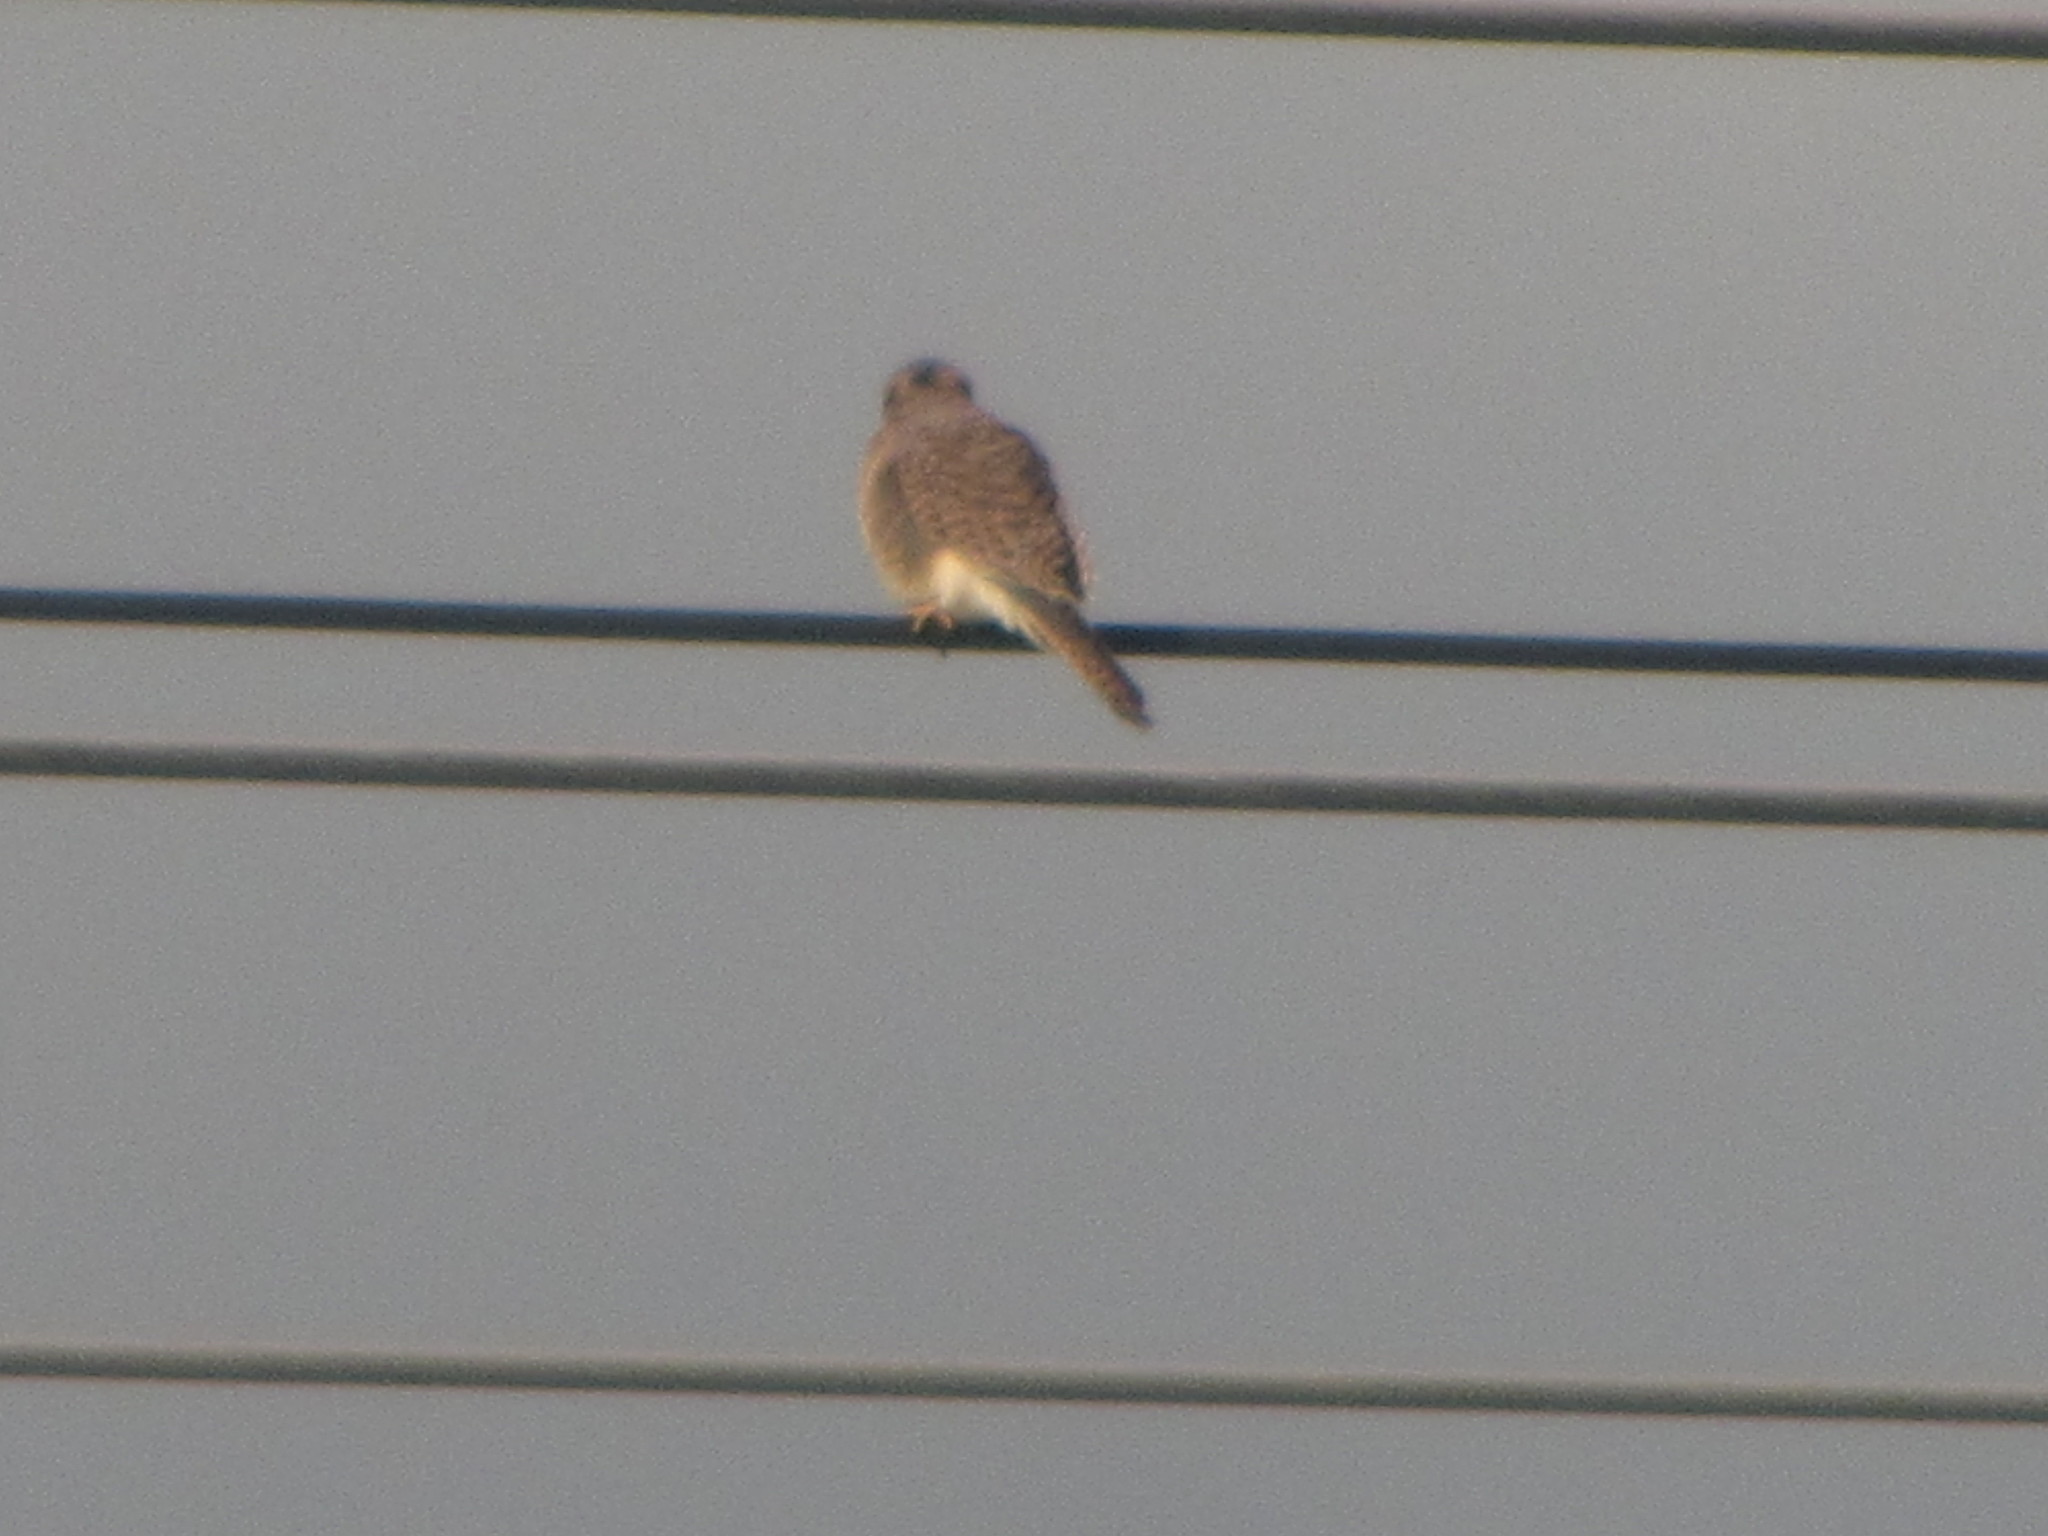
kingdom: Animalia
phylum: Chordata
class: Aves
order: Falconiformes
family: Falconidae
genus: Falco
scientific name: Falco sparverius
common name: American kestrel
